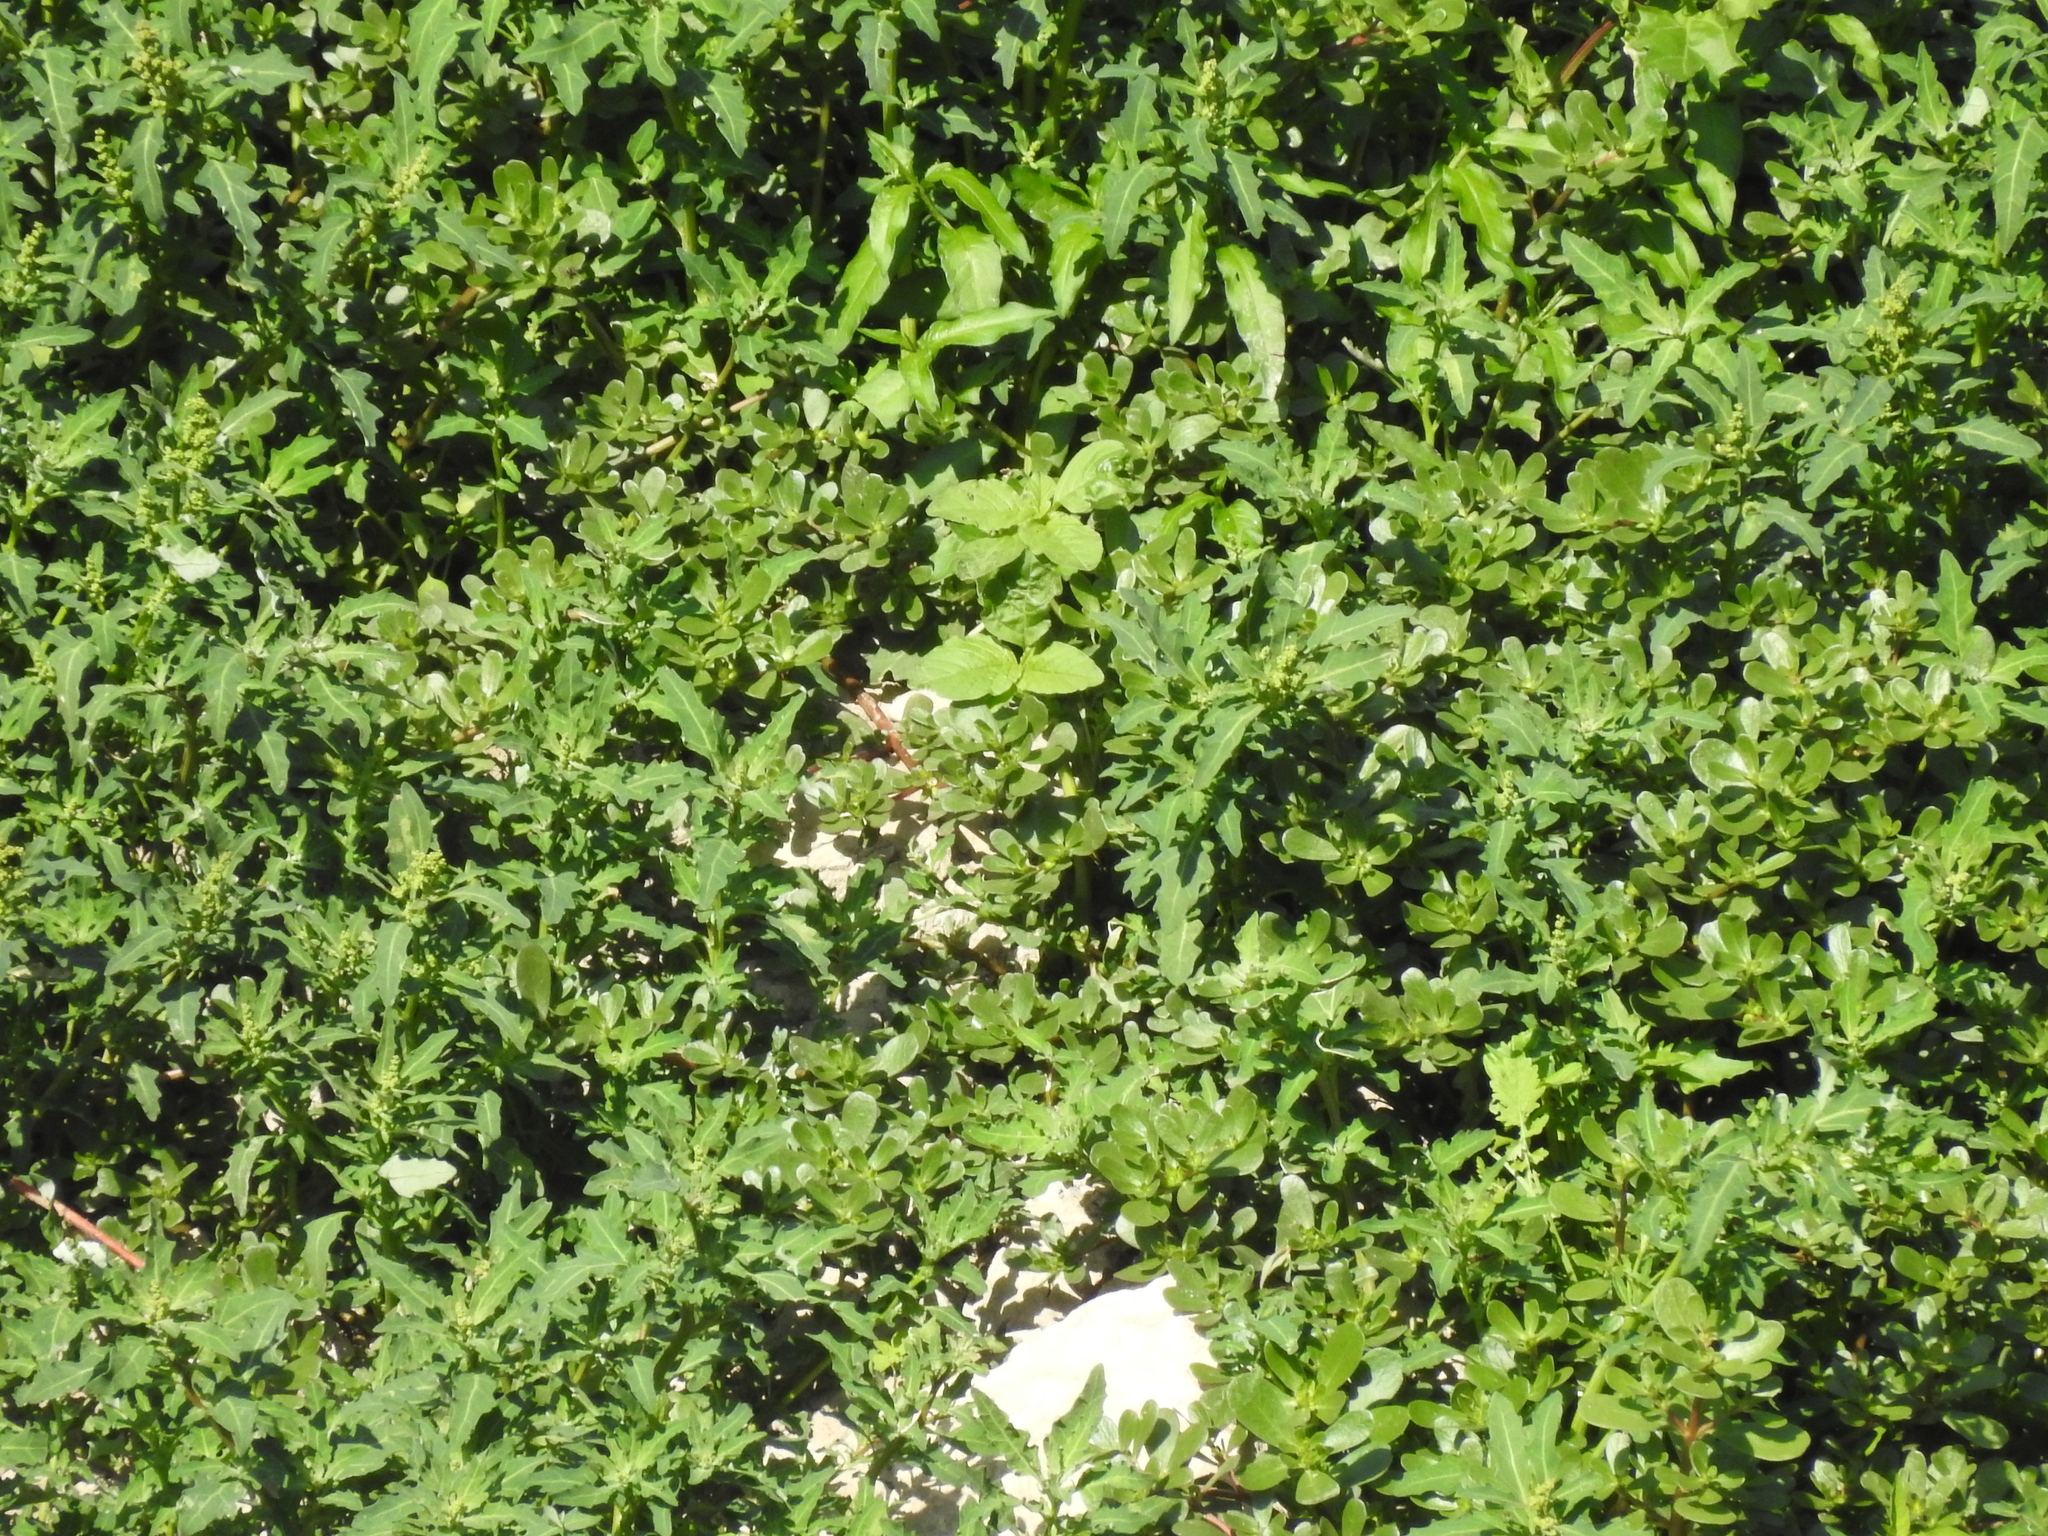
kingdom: Plantae
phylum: Tracheophyta
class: Magnoliopsida
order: Caryophyllales
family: Amaranthaceae
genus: Oxybasis
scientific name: Oxybasis glauca
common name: Glaucous goosefoot
